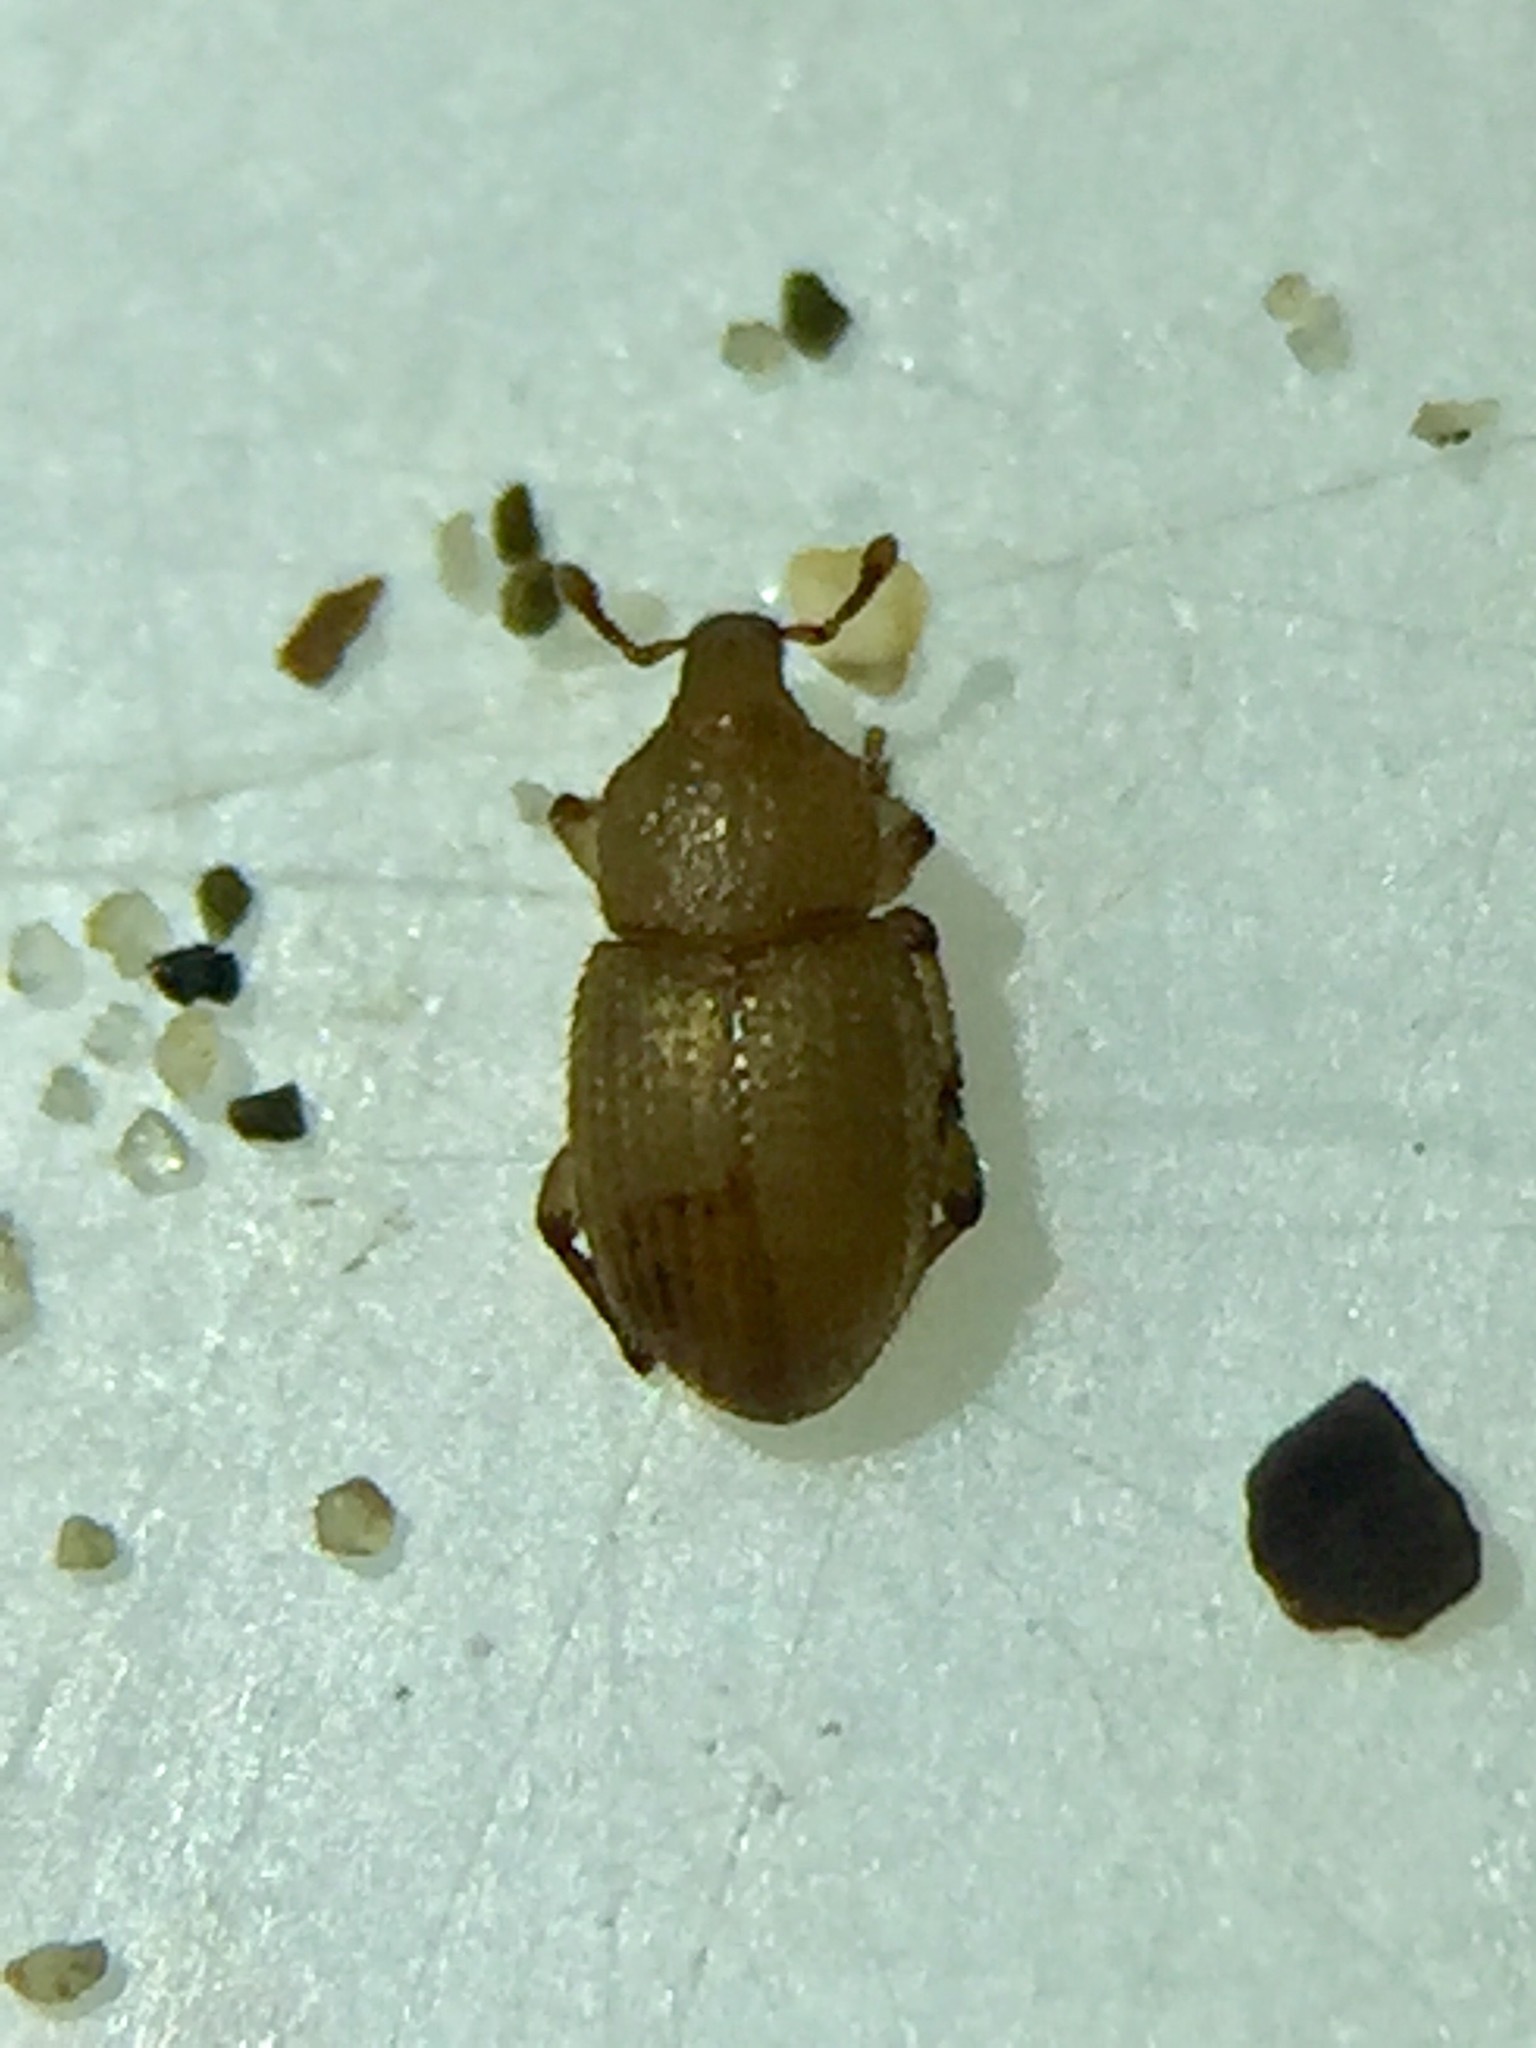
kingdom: Animalia
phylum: Arthropoda
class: Insecta
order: Coleoptera
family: Curculionidae
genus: Aphela
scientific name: Aphela algarum
